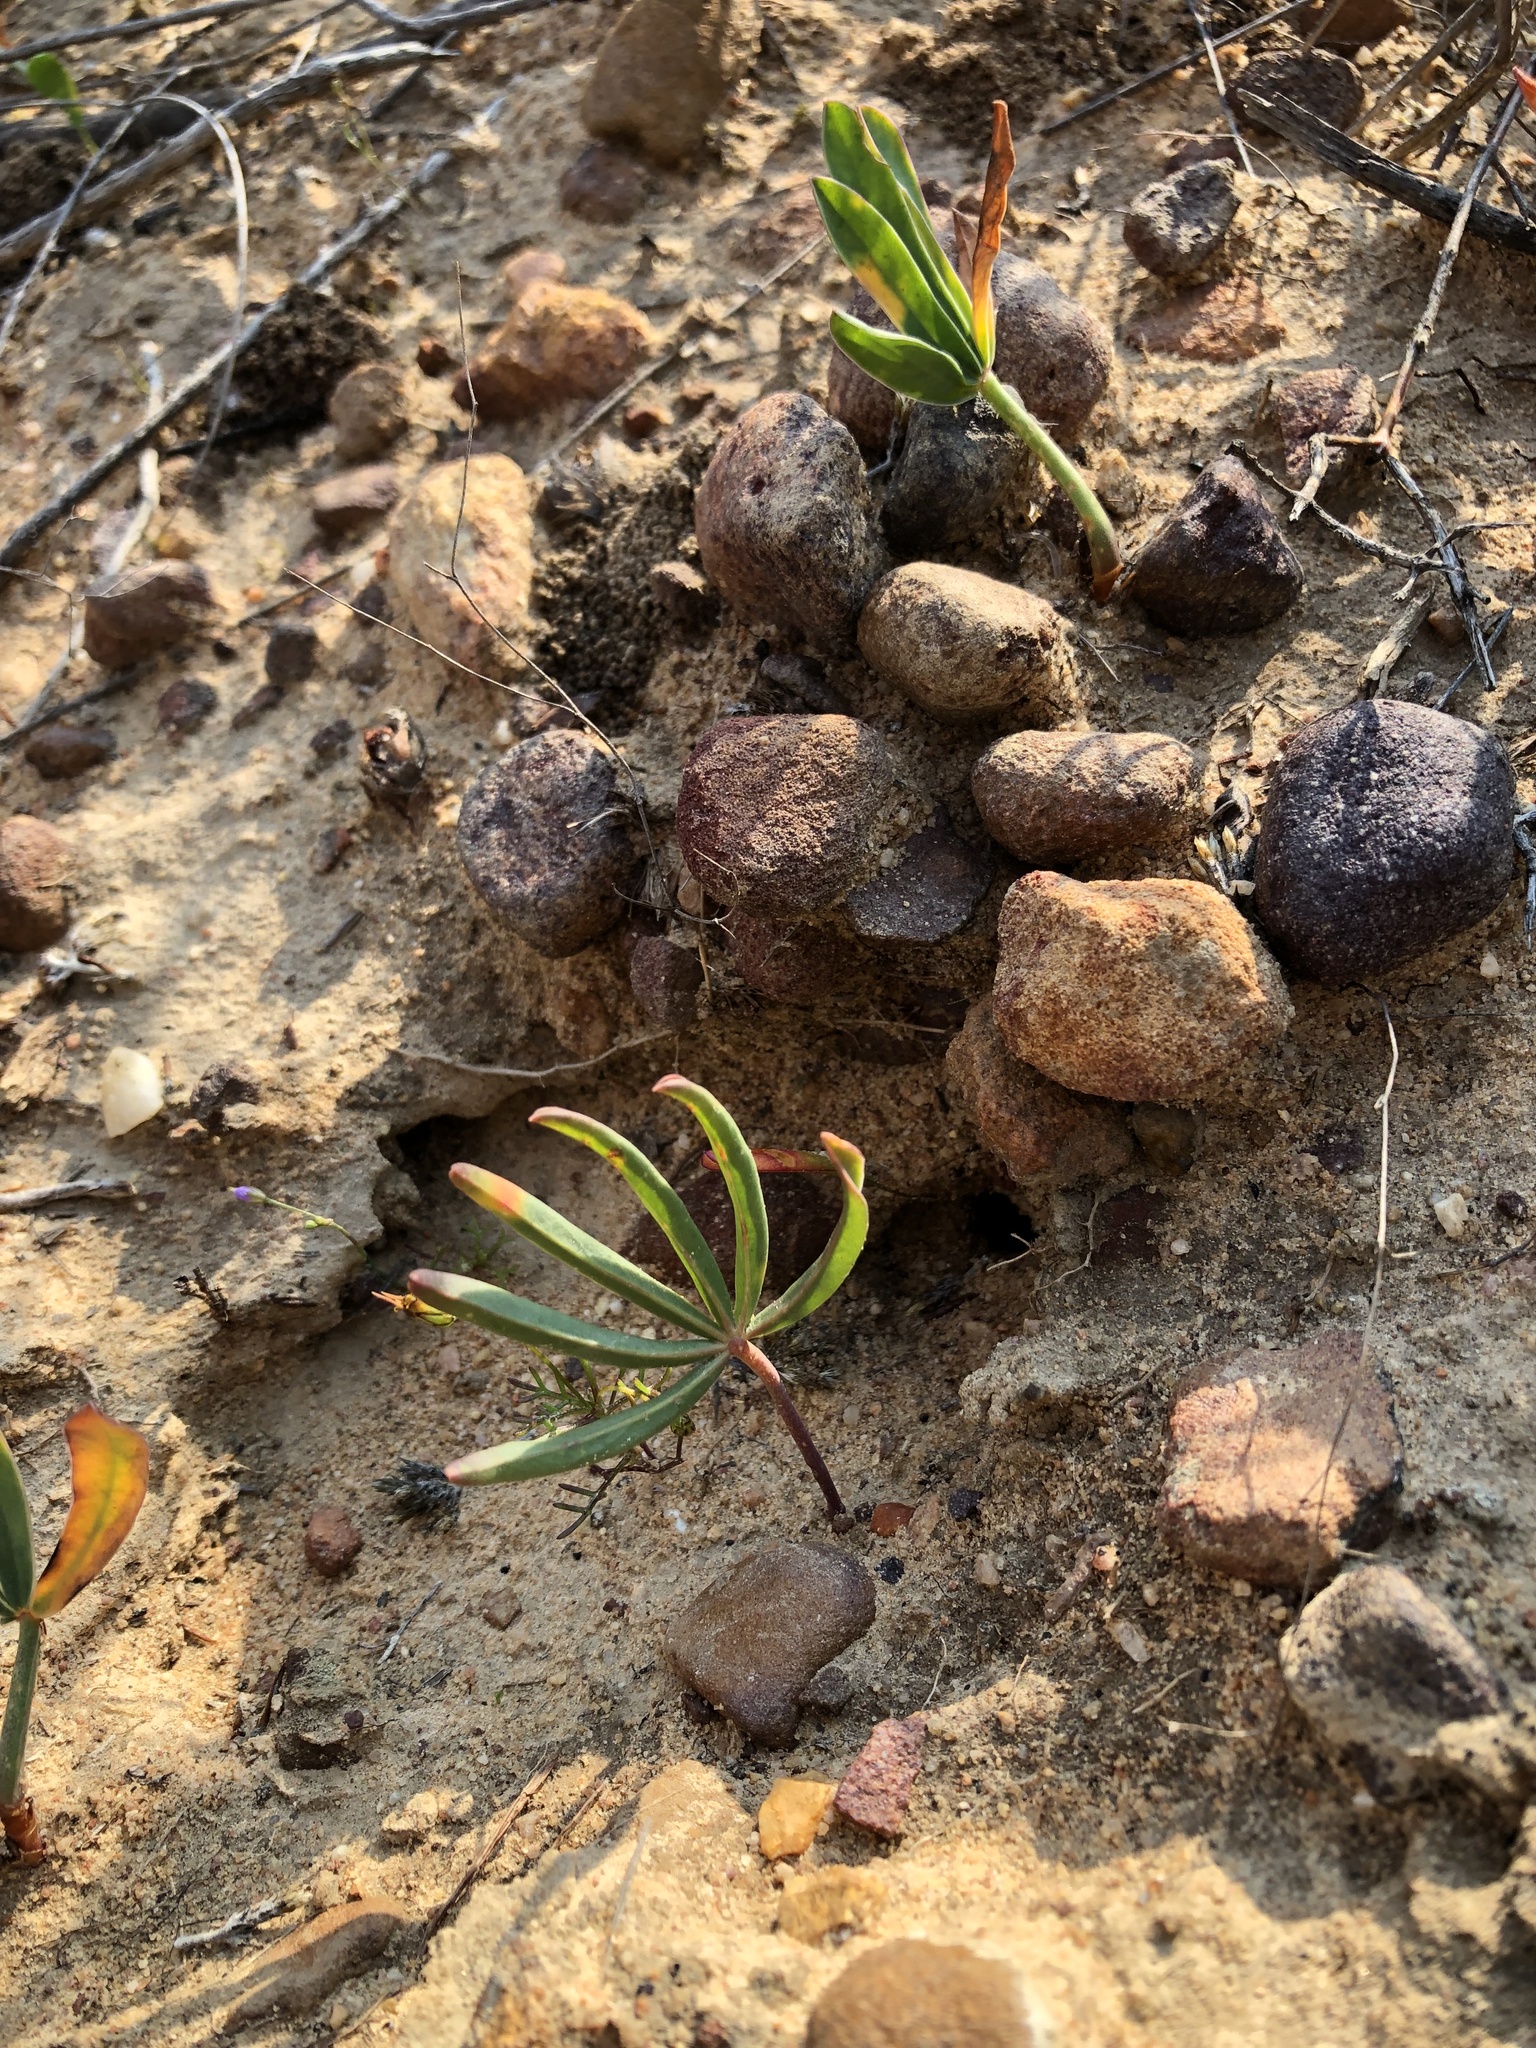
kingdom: Plantae
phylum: Tracheophyta
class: Magnoliopsida
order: Oxalidales
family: Oxalidaceae
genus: Oxalis
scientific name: Oxalis flava
